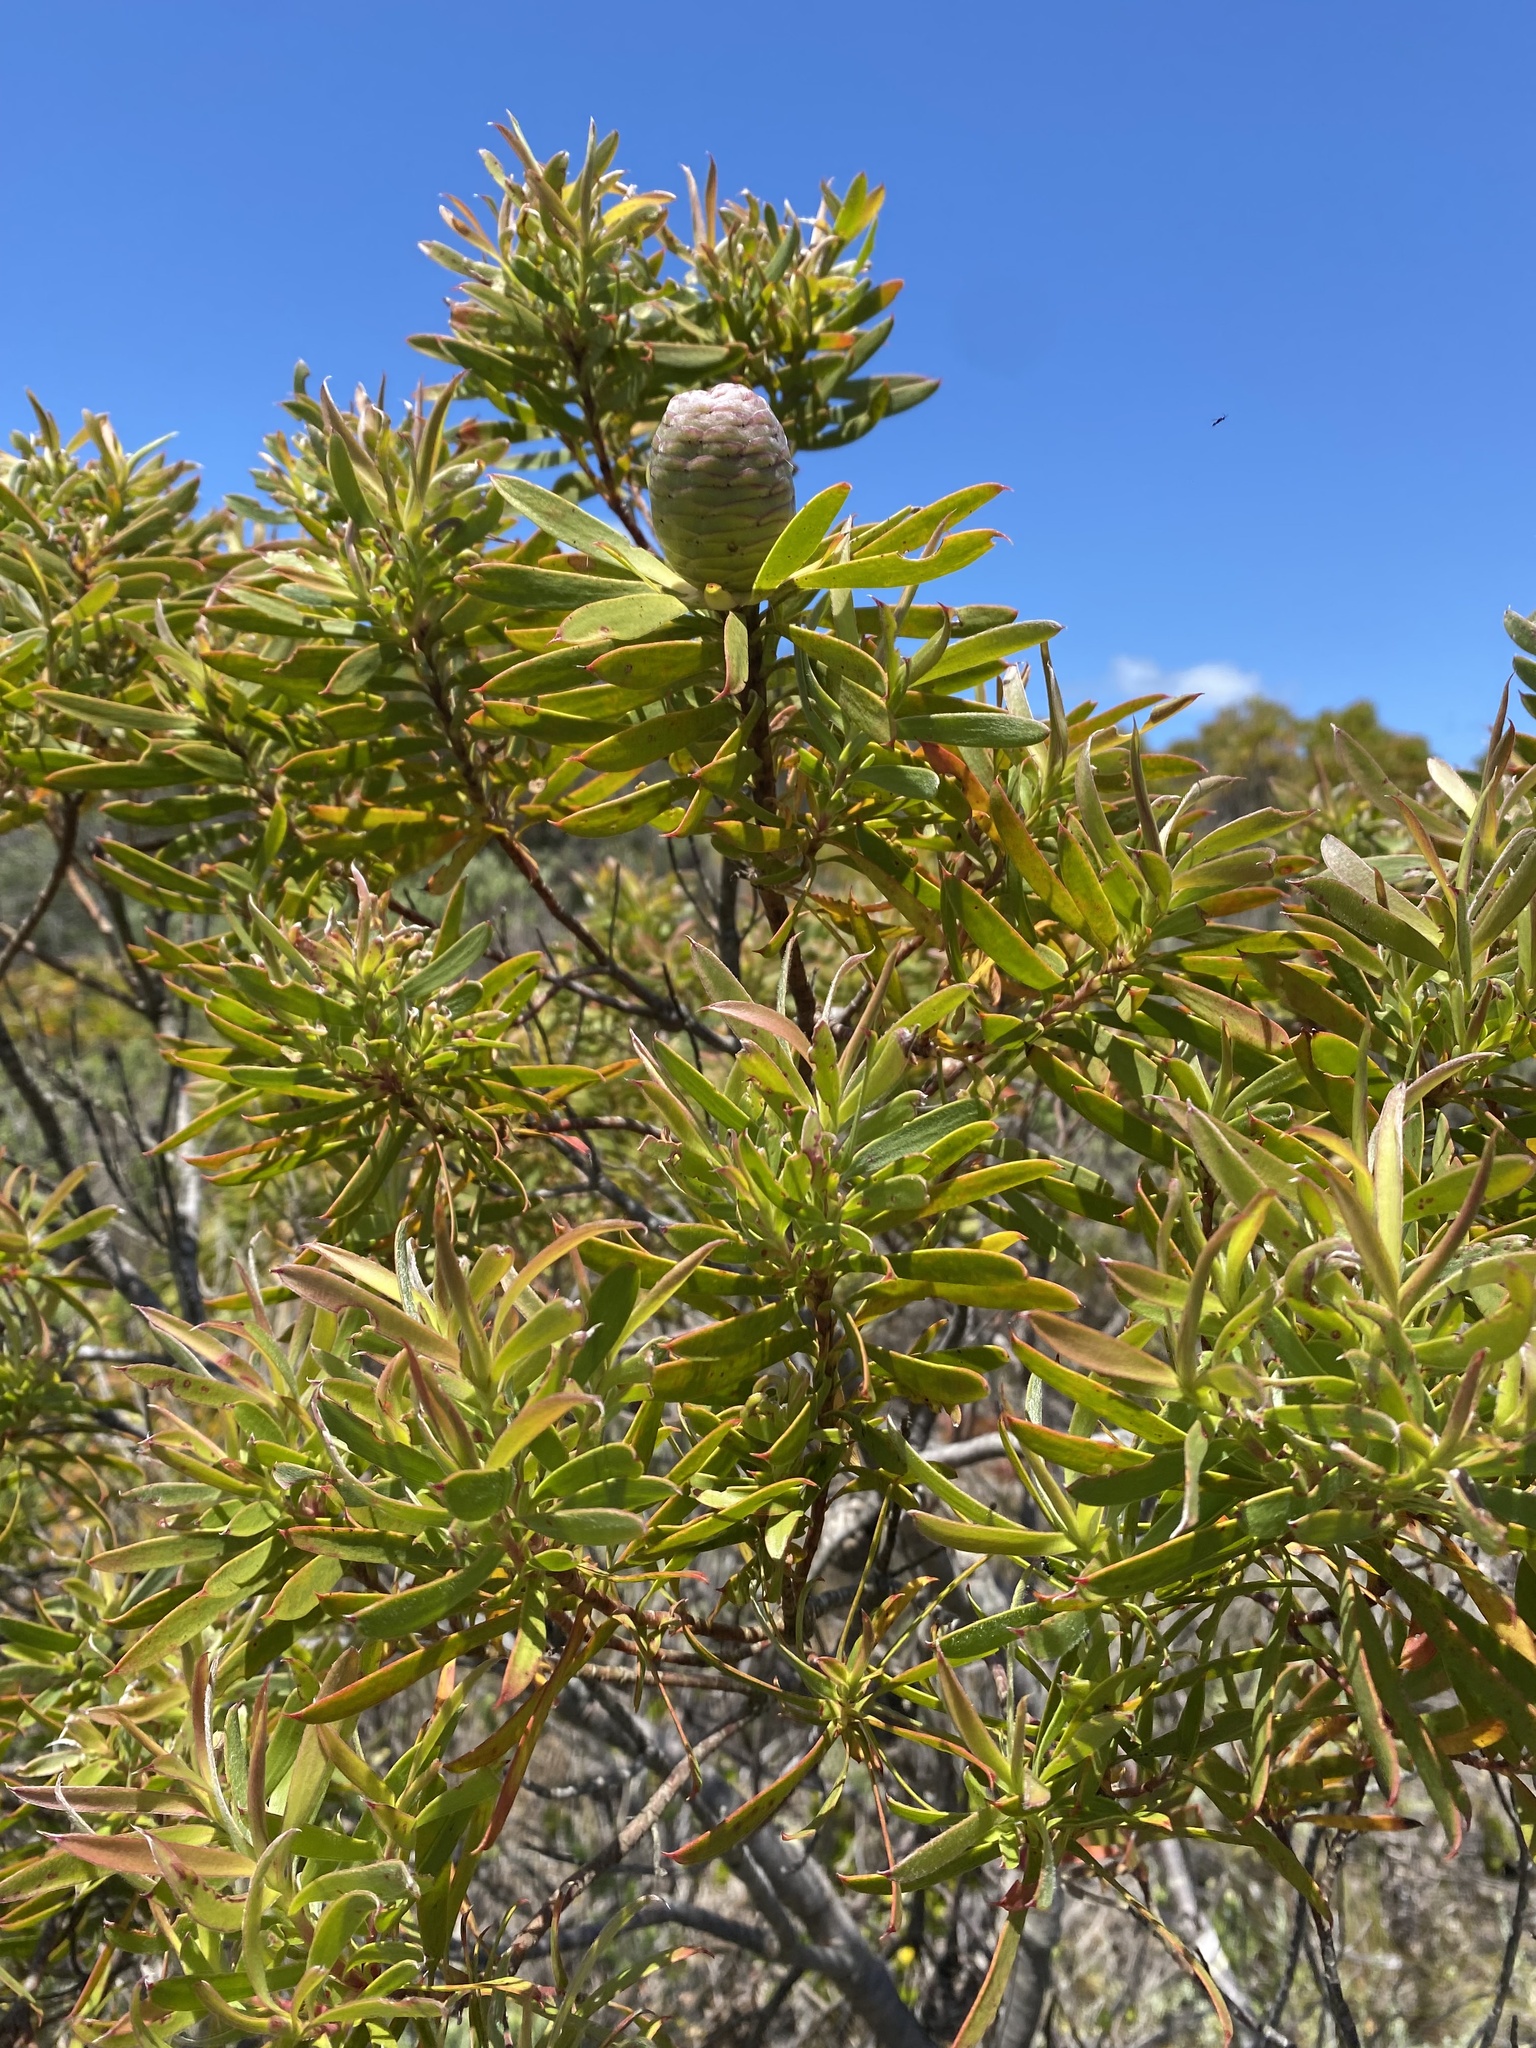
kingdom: Plantae
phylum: Tracheophyta
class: Magnoliopsida
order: Proteales
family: Proteaceae
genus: Leucadendron
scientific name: Leucadendron coniferum
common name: Dune conebush
